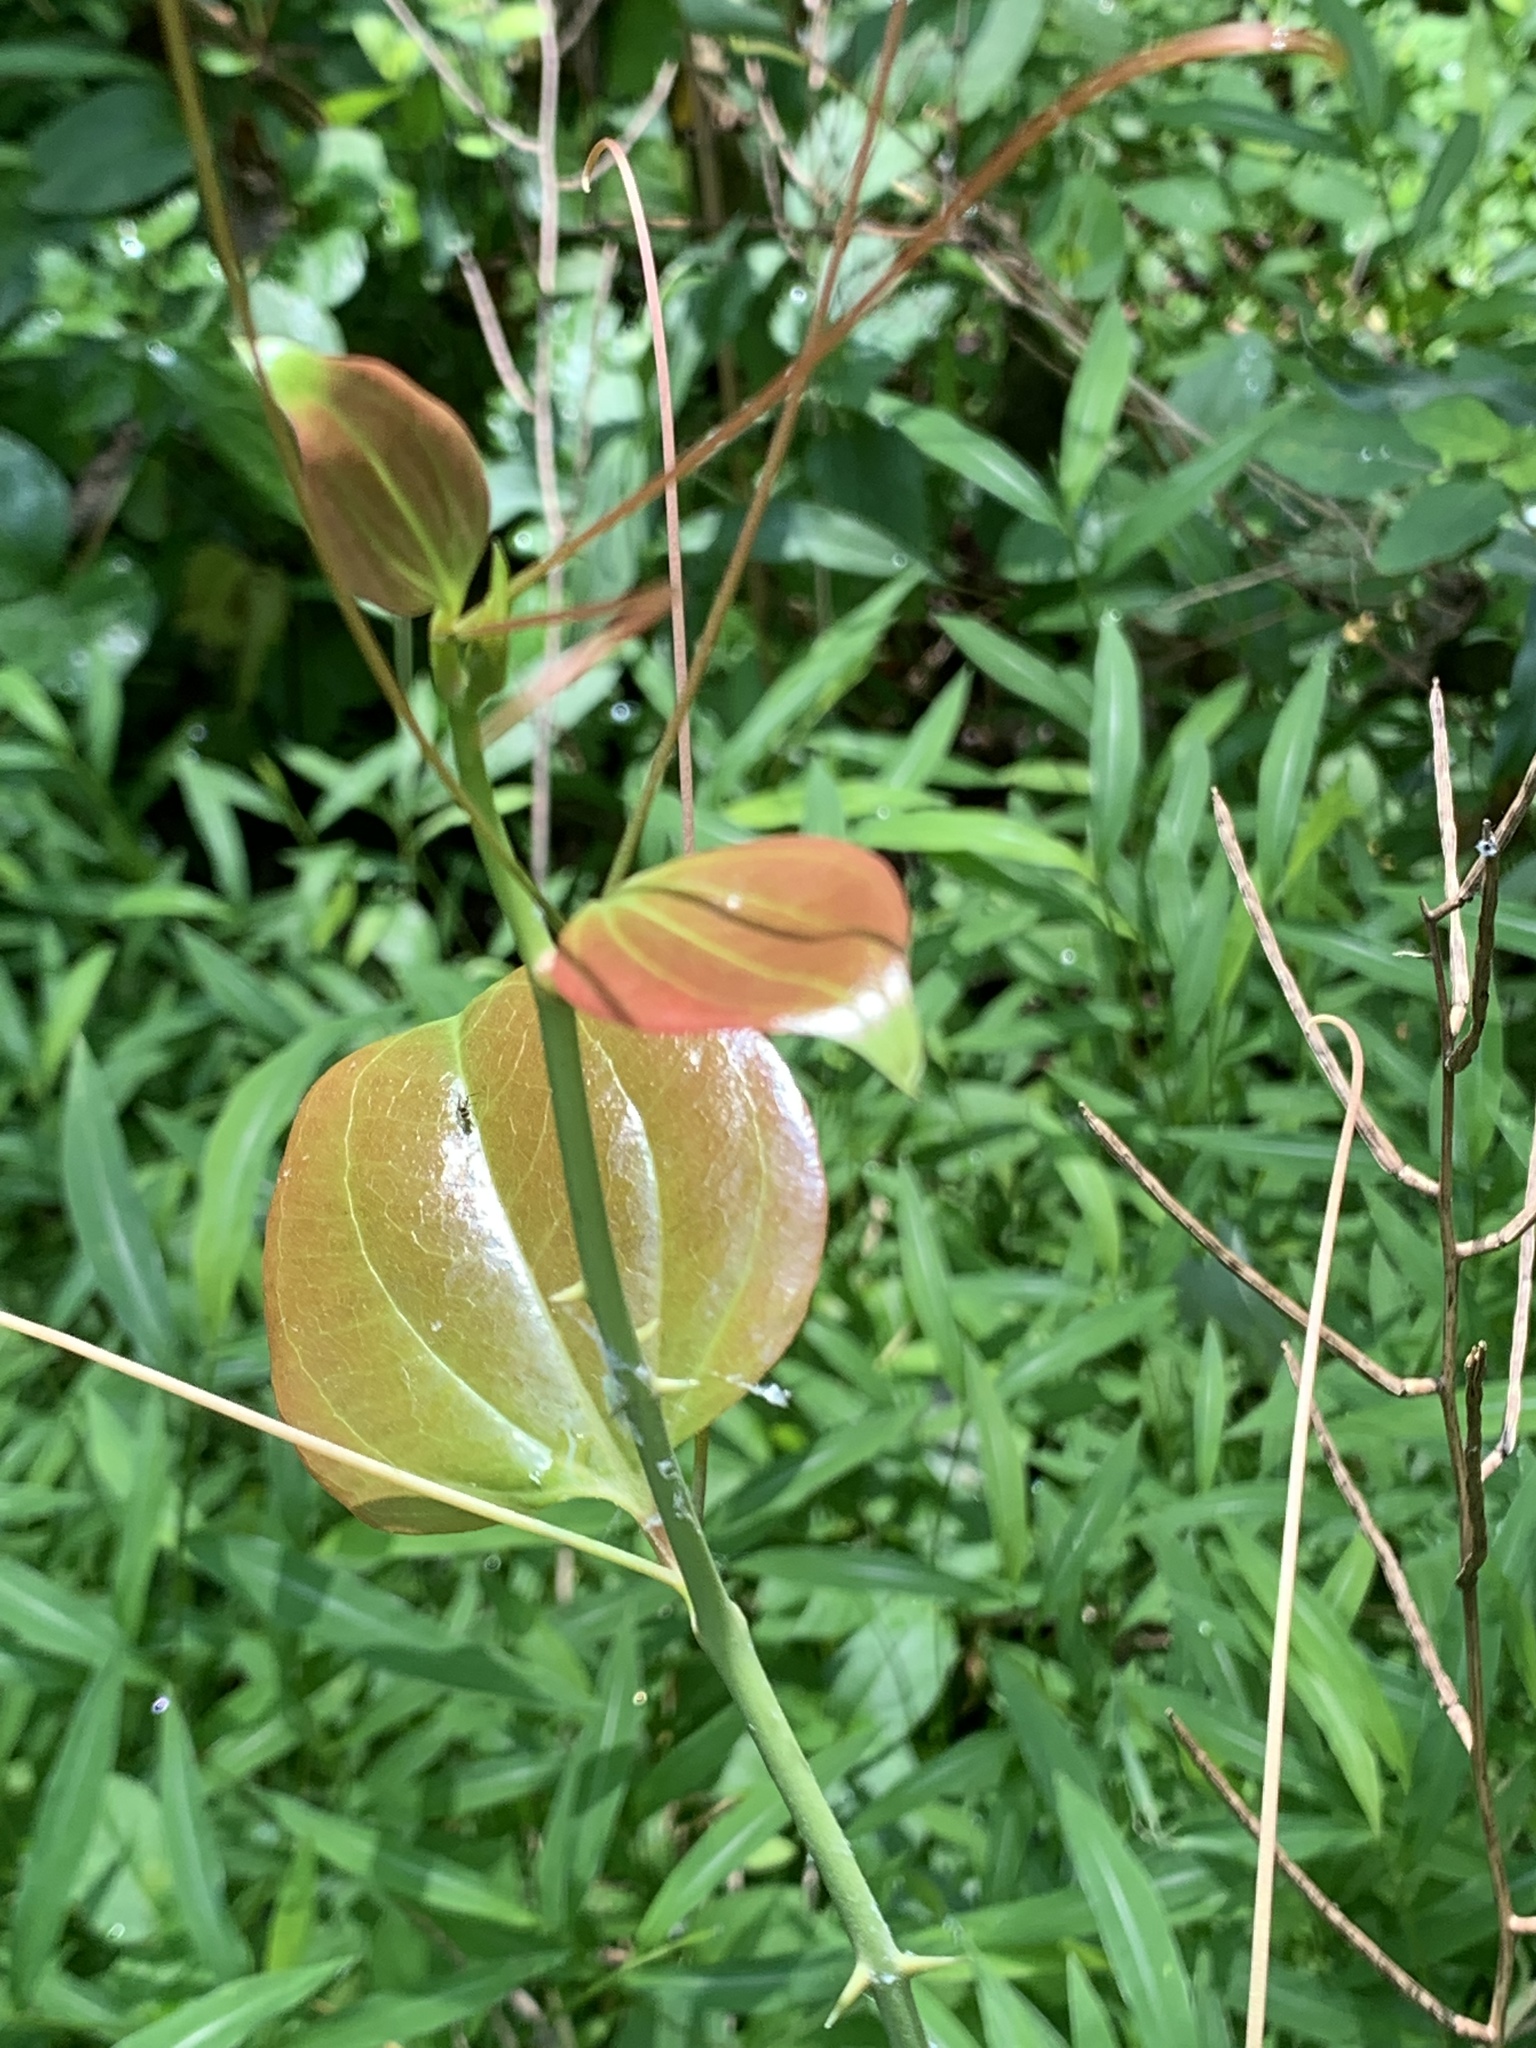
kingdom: Plantae
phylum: Tracheophyta
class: Liliopsida
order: Liliales
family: Smilacaceae
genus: Smilax
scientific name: Smilax rotundifolia
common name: Bullbriar
